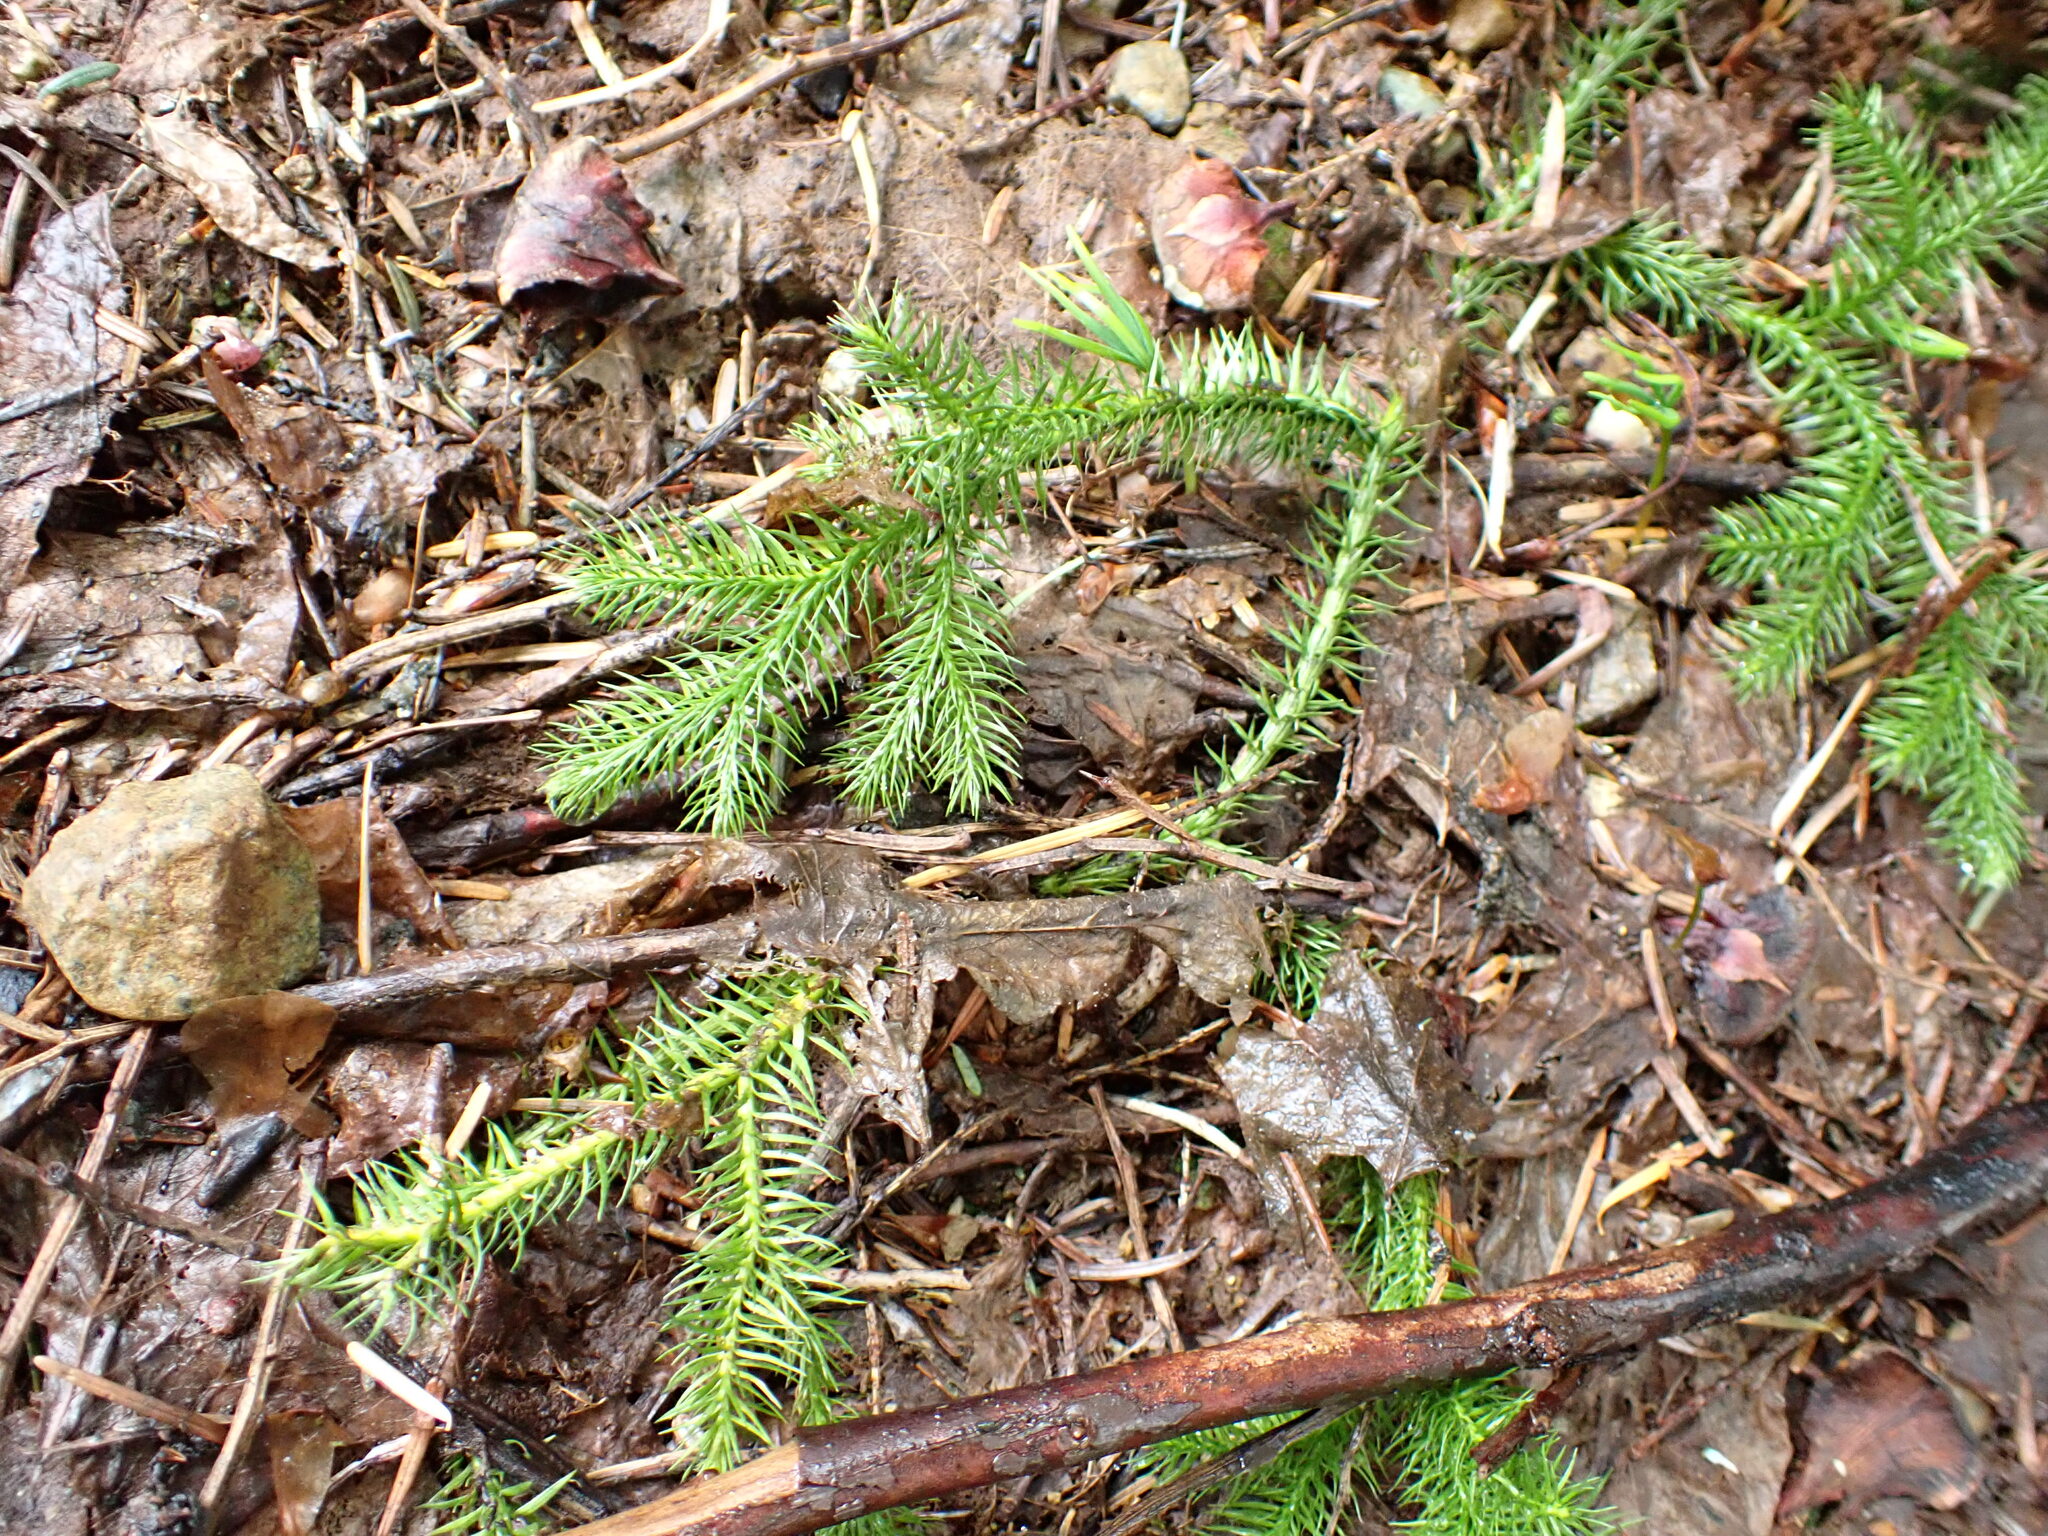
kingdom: Plantae
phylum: Tracheophyta
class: Lycopodiopsida
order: Lycopodiales
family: Lycopodiaceae
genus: Lycopodium
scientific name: Lycopodium clavatum
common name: Stag's-horn clubmoss
